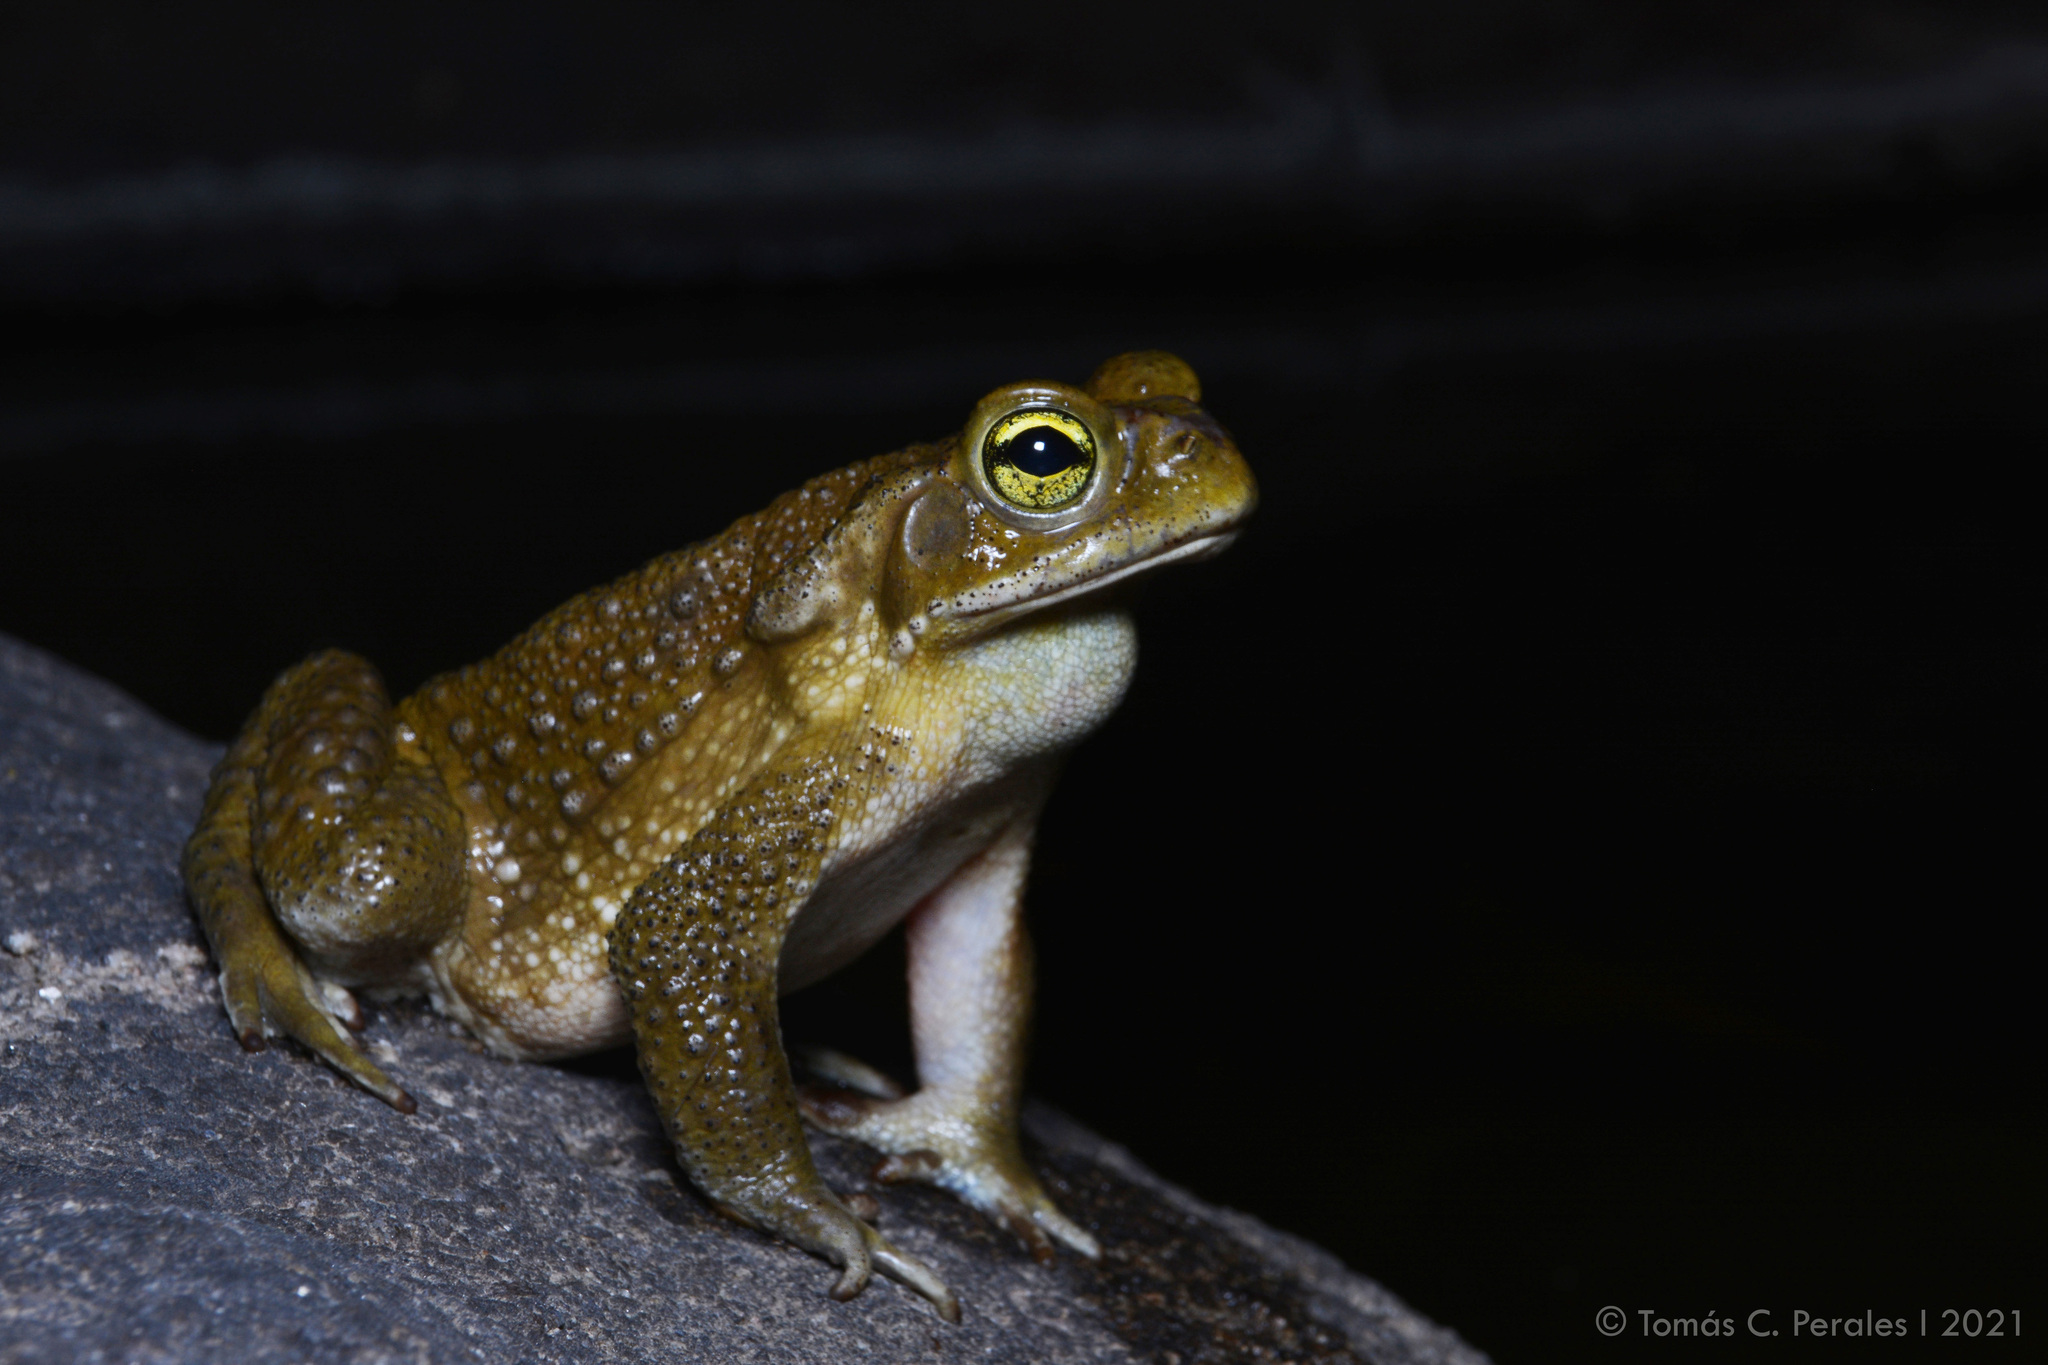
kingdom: Animalia
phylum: Chordata
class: Amphibia
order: Anura
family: Bufonidae
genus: Rhinella
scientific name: Rhinella arenarum
